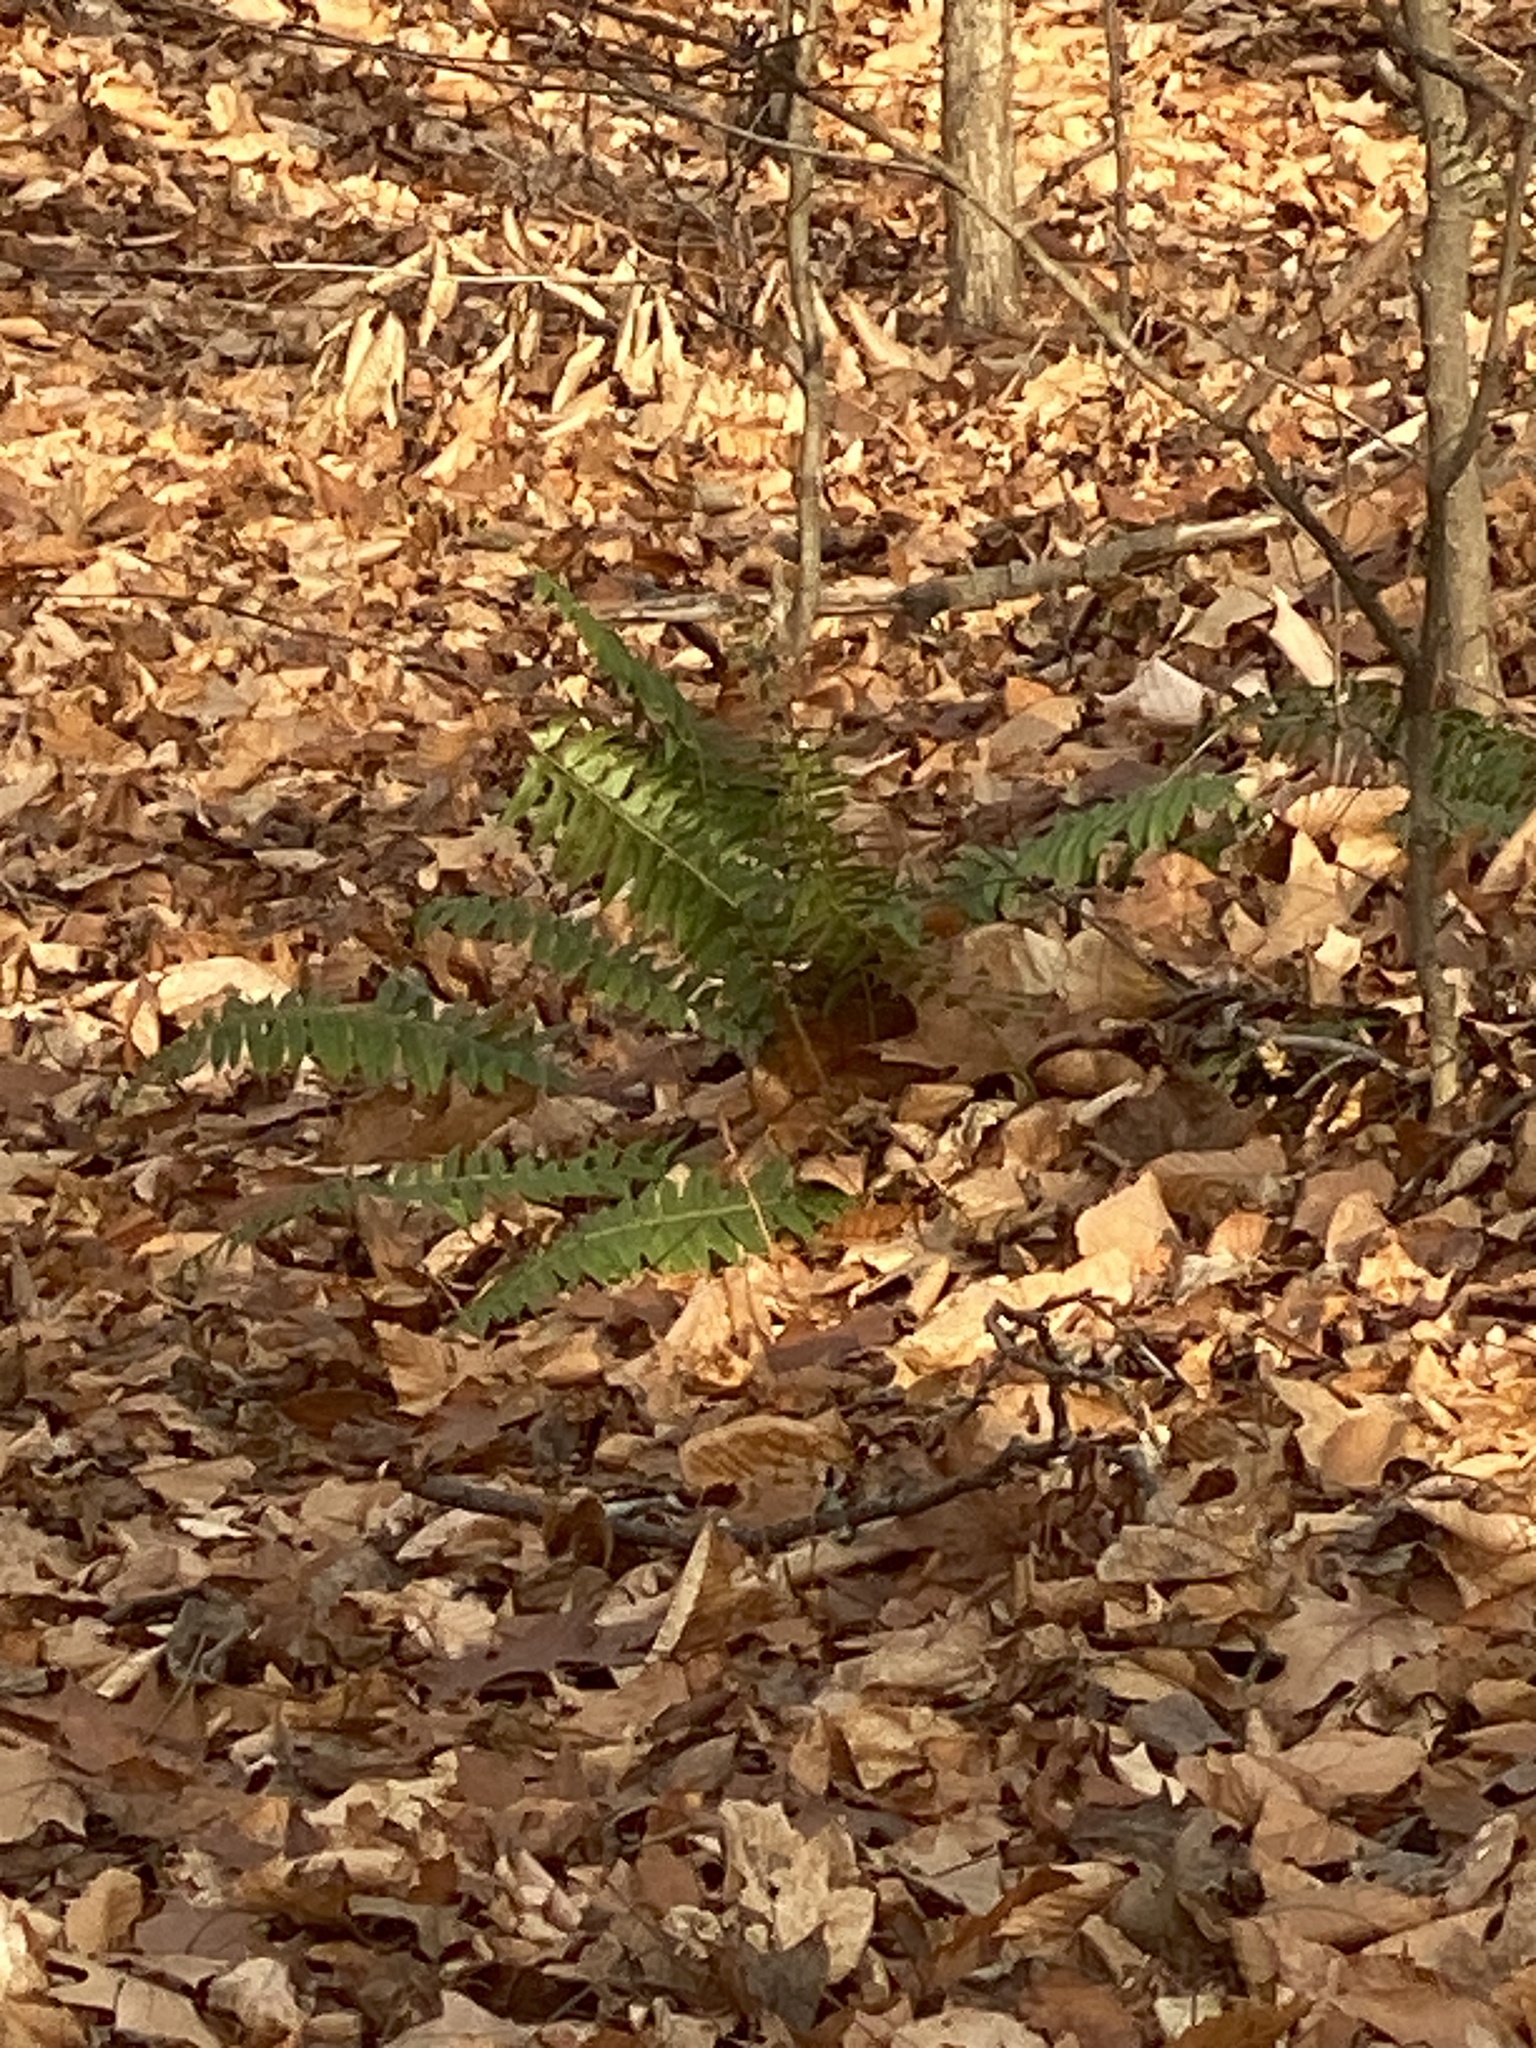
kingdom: Plantae
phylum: Tracheophyta
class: Polypodiopsida
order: Polypodiales
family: Dryopteridaceae
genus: Polystichum
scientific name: Polystichum acrostichoides
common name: Christmas fern
